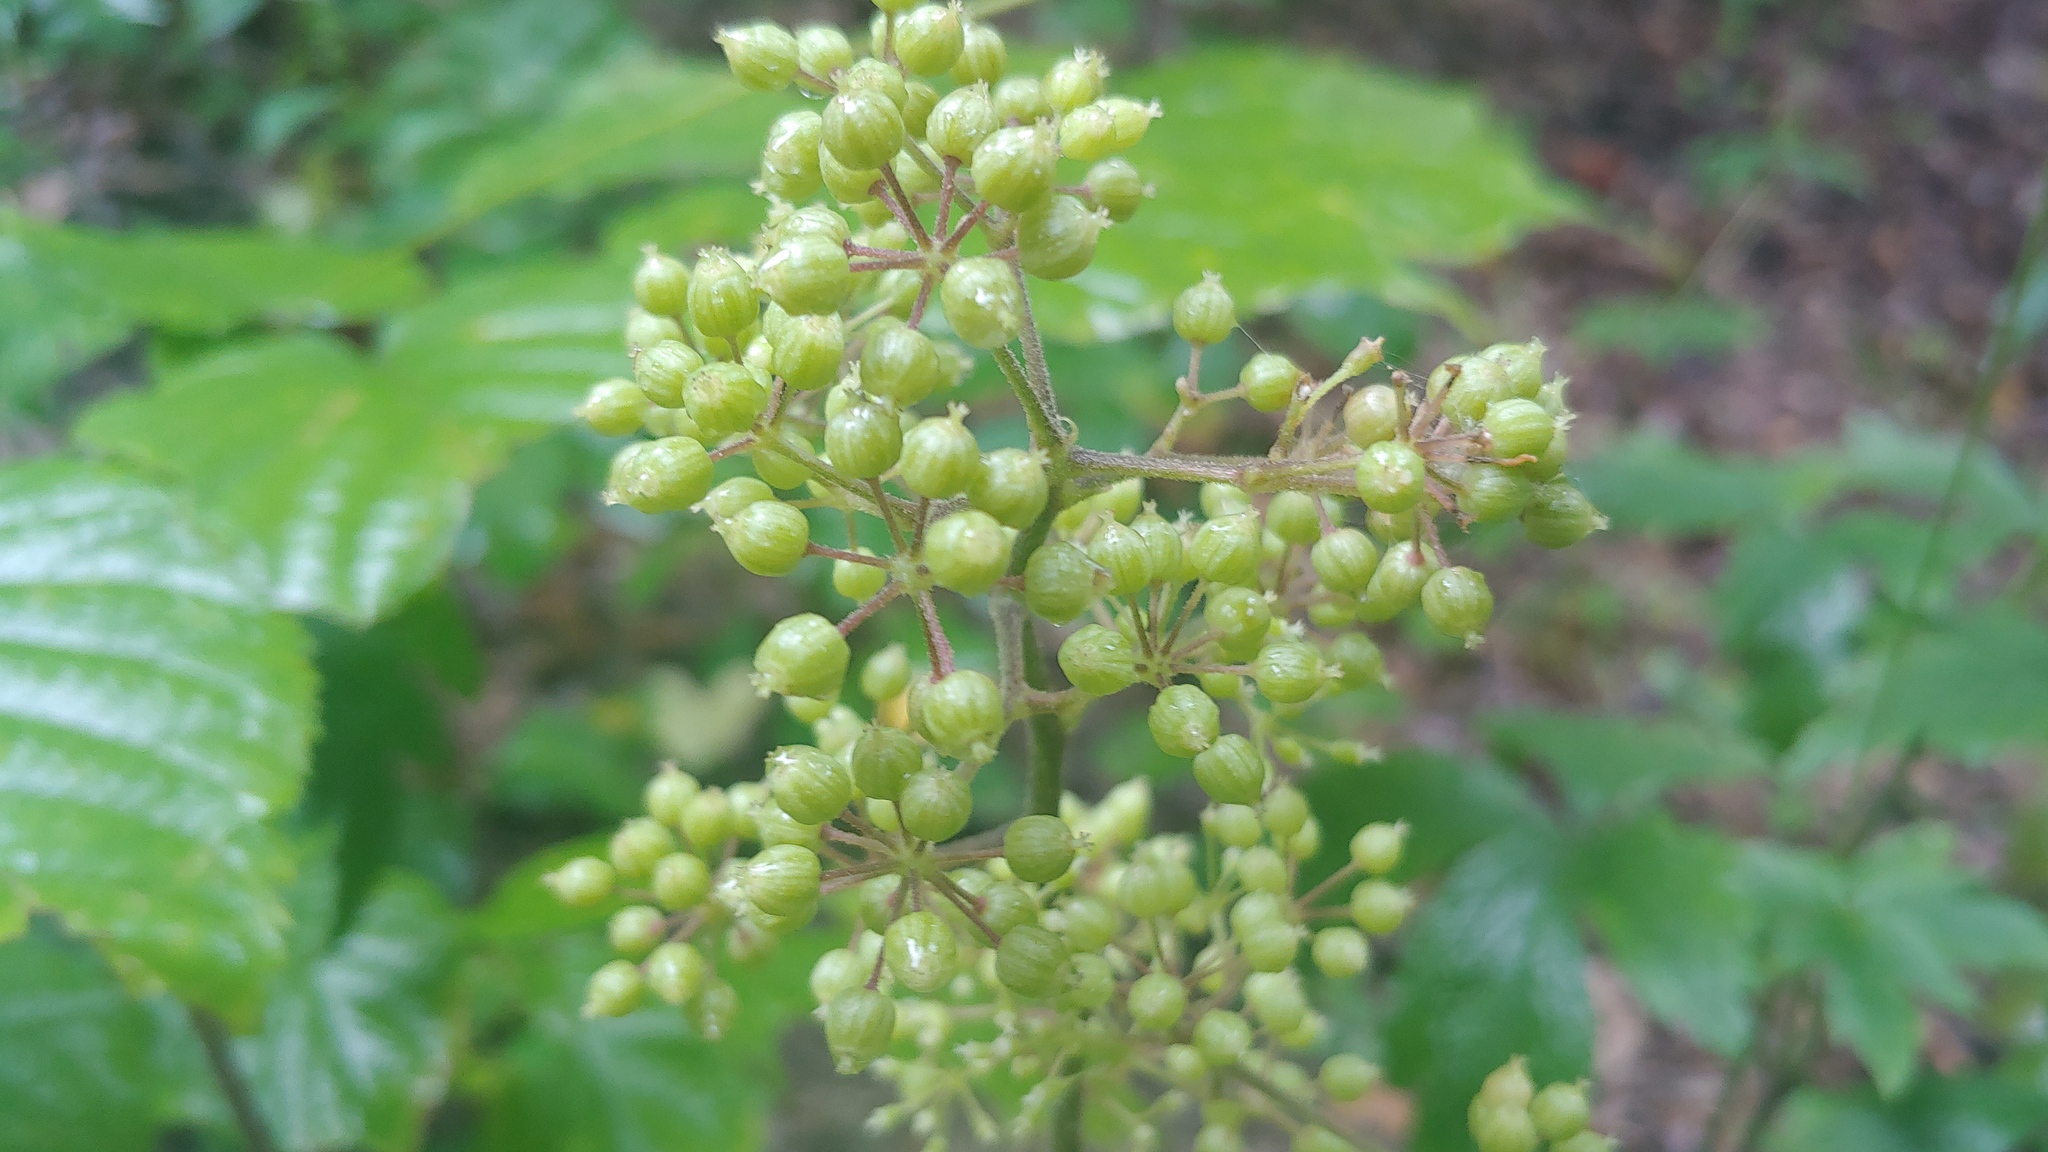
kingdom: Plantae
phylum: Tracheophyta
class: Magnoliopsida
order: Apiales
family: Araliaceae
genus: Aralia
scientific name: Aralia racemosa
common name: American-spikenard
